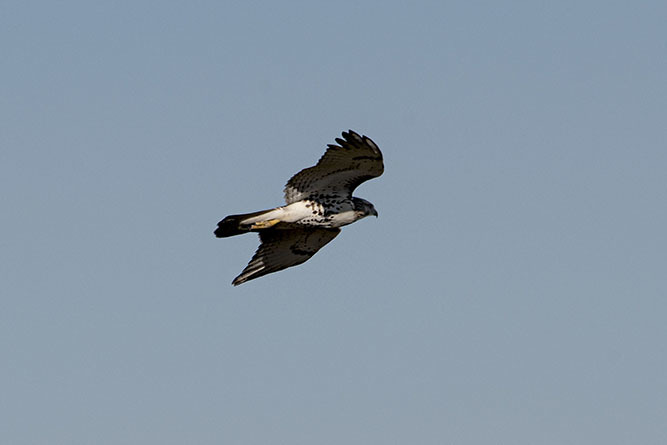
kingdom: Animalia
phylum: Chordata
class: Aves
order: Accipitriformes
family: Accipitridae
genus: Buteo
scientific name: Buteo jamaicensis
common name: Red-tailed hawk
